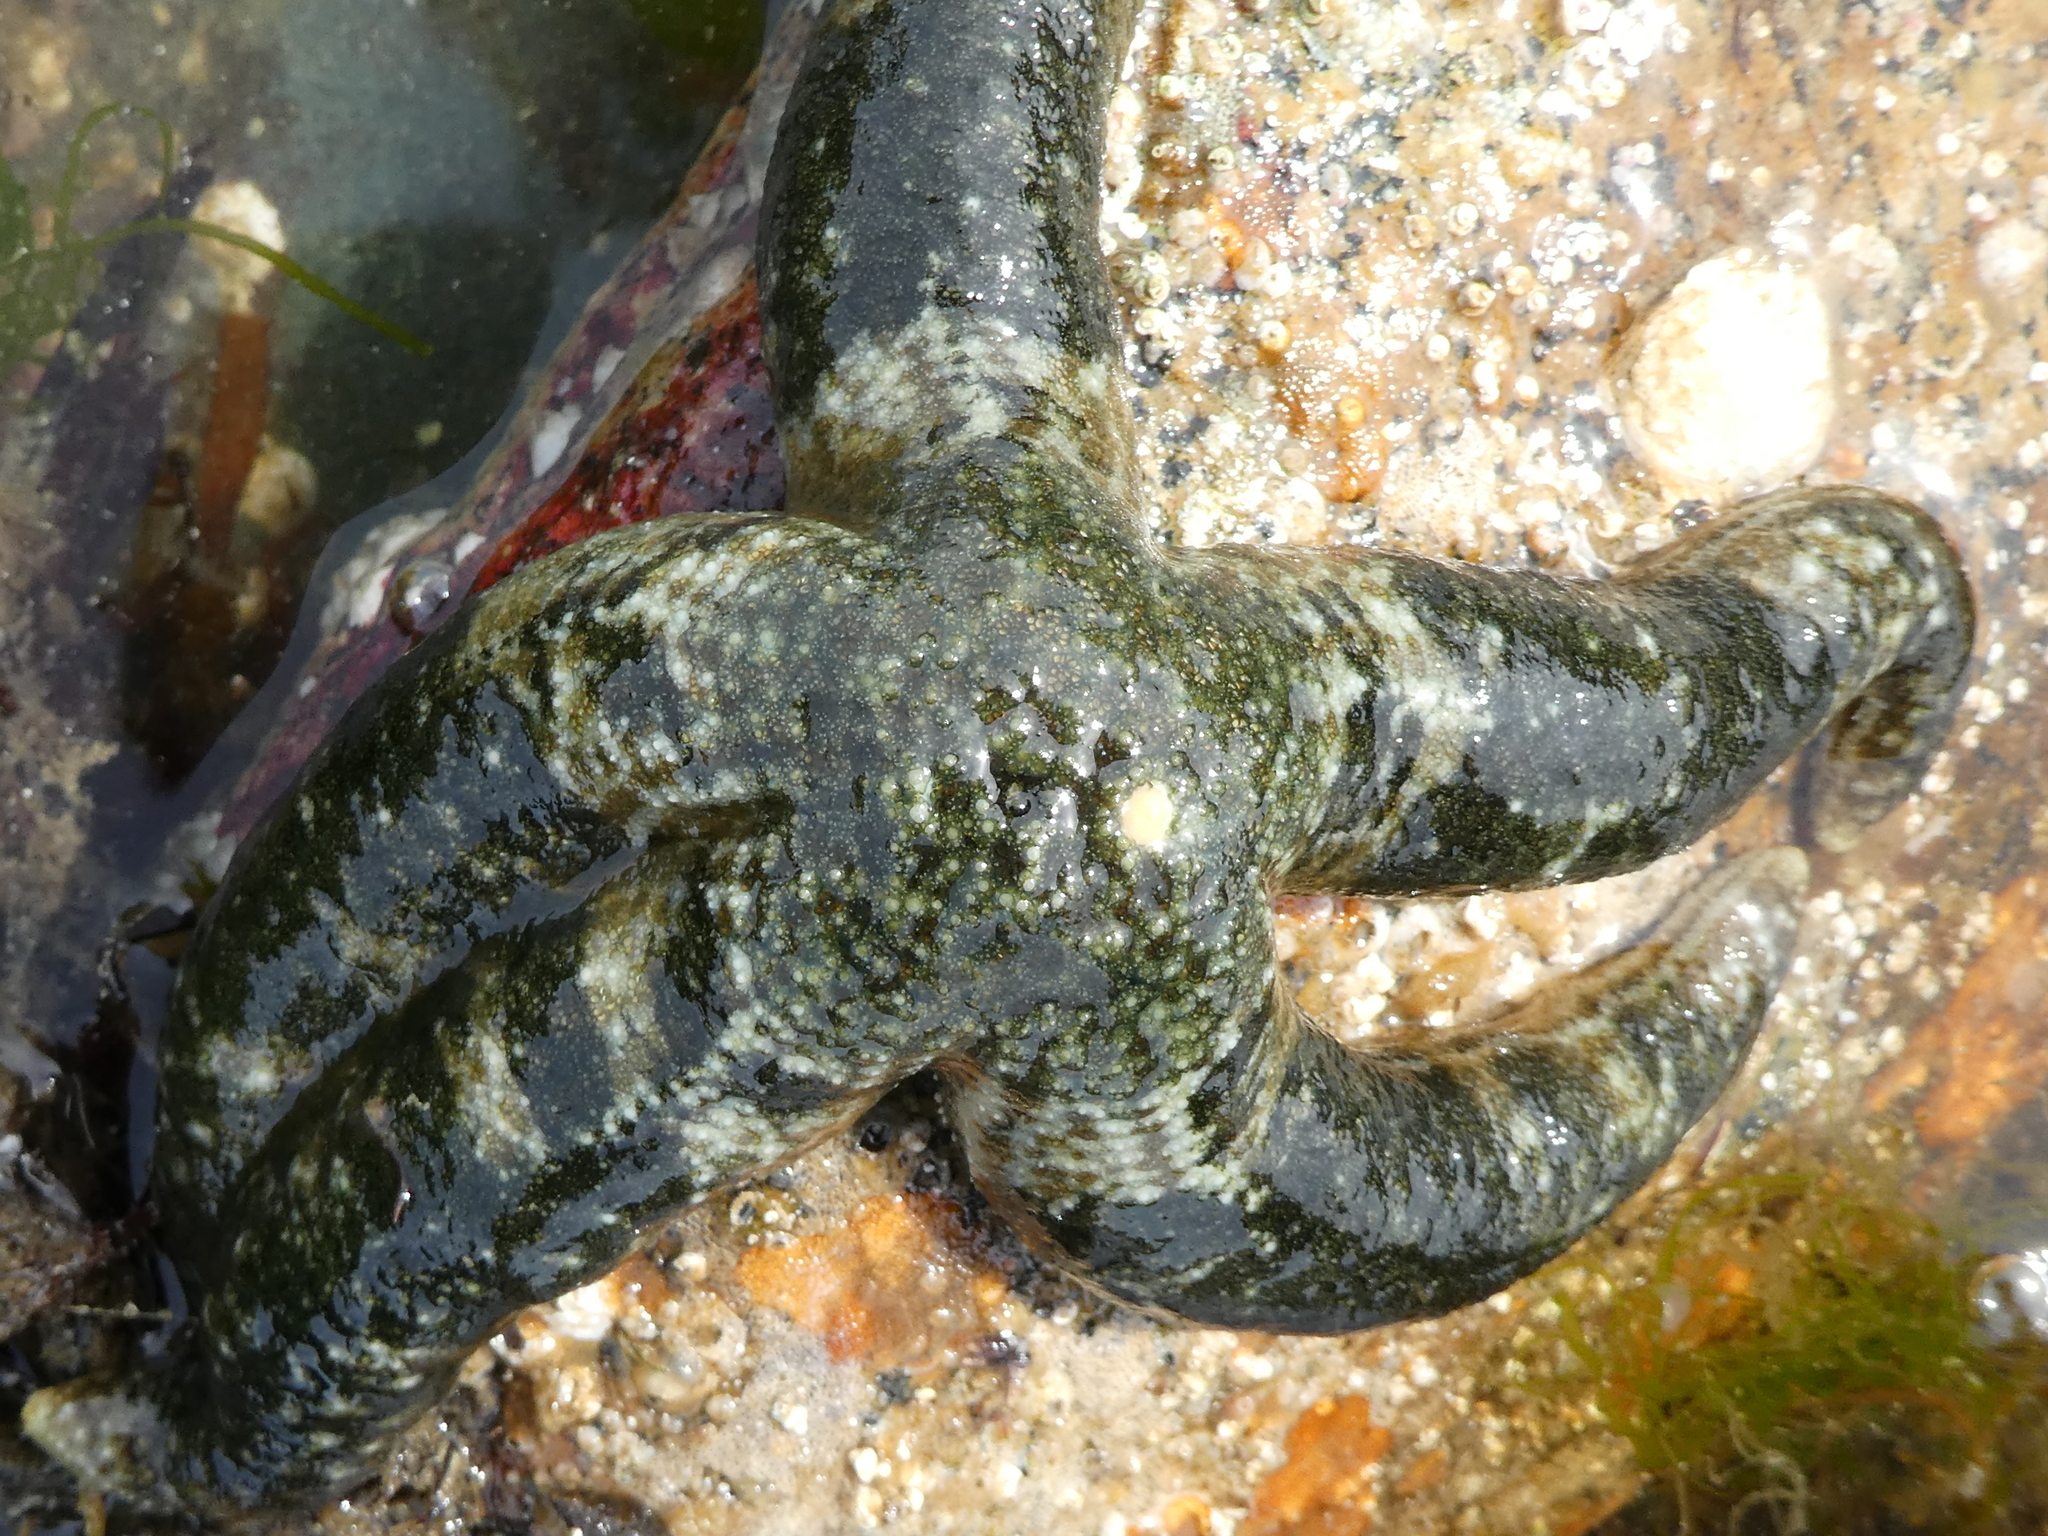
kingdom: Animalia
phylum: Echinodermata
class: Asteroidea
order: Forcipulatida
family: Asteriidae
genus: Evasterias
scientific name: Evasterias troschelii
